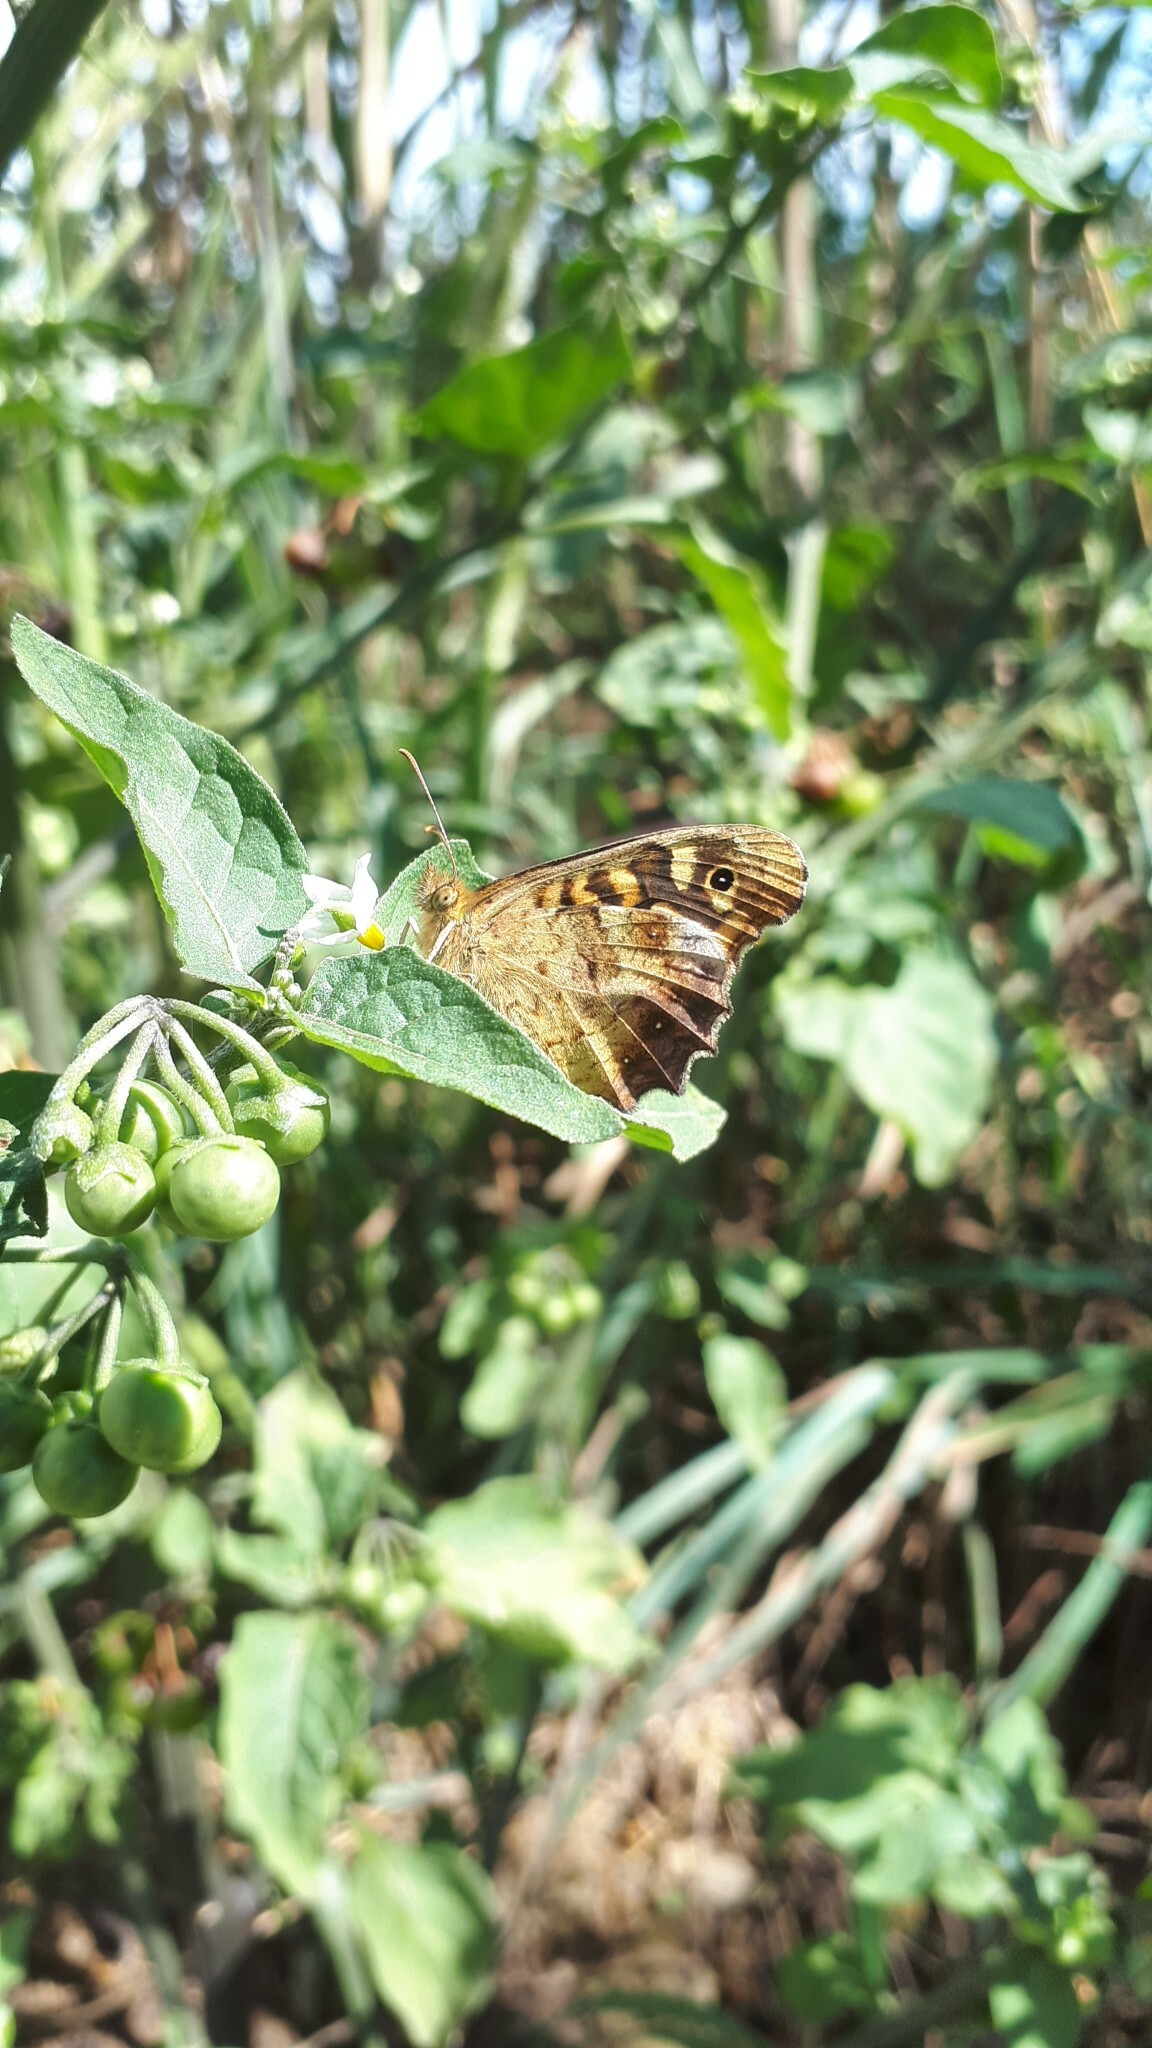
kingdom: Animalia
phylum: Arthropoda
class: Insecta
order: Lepidoptera
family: Nymphalidae
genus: Pararge
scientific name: Pararge aegeria
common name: Speckled wood
